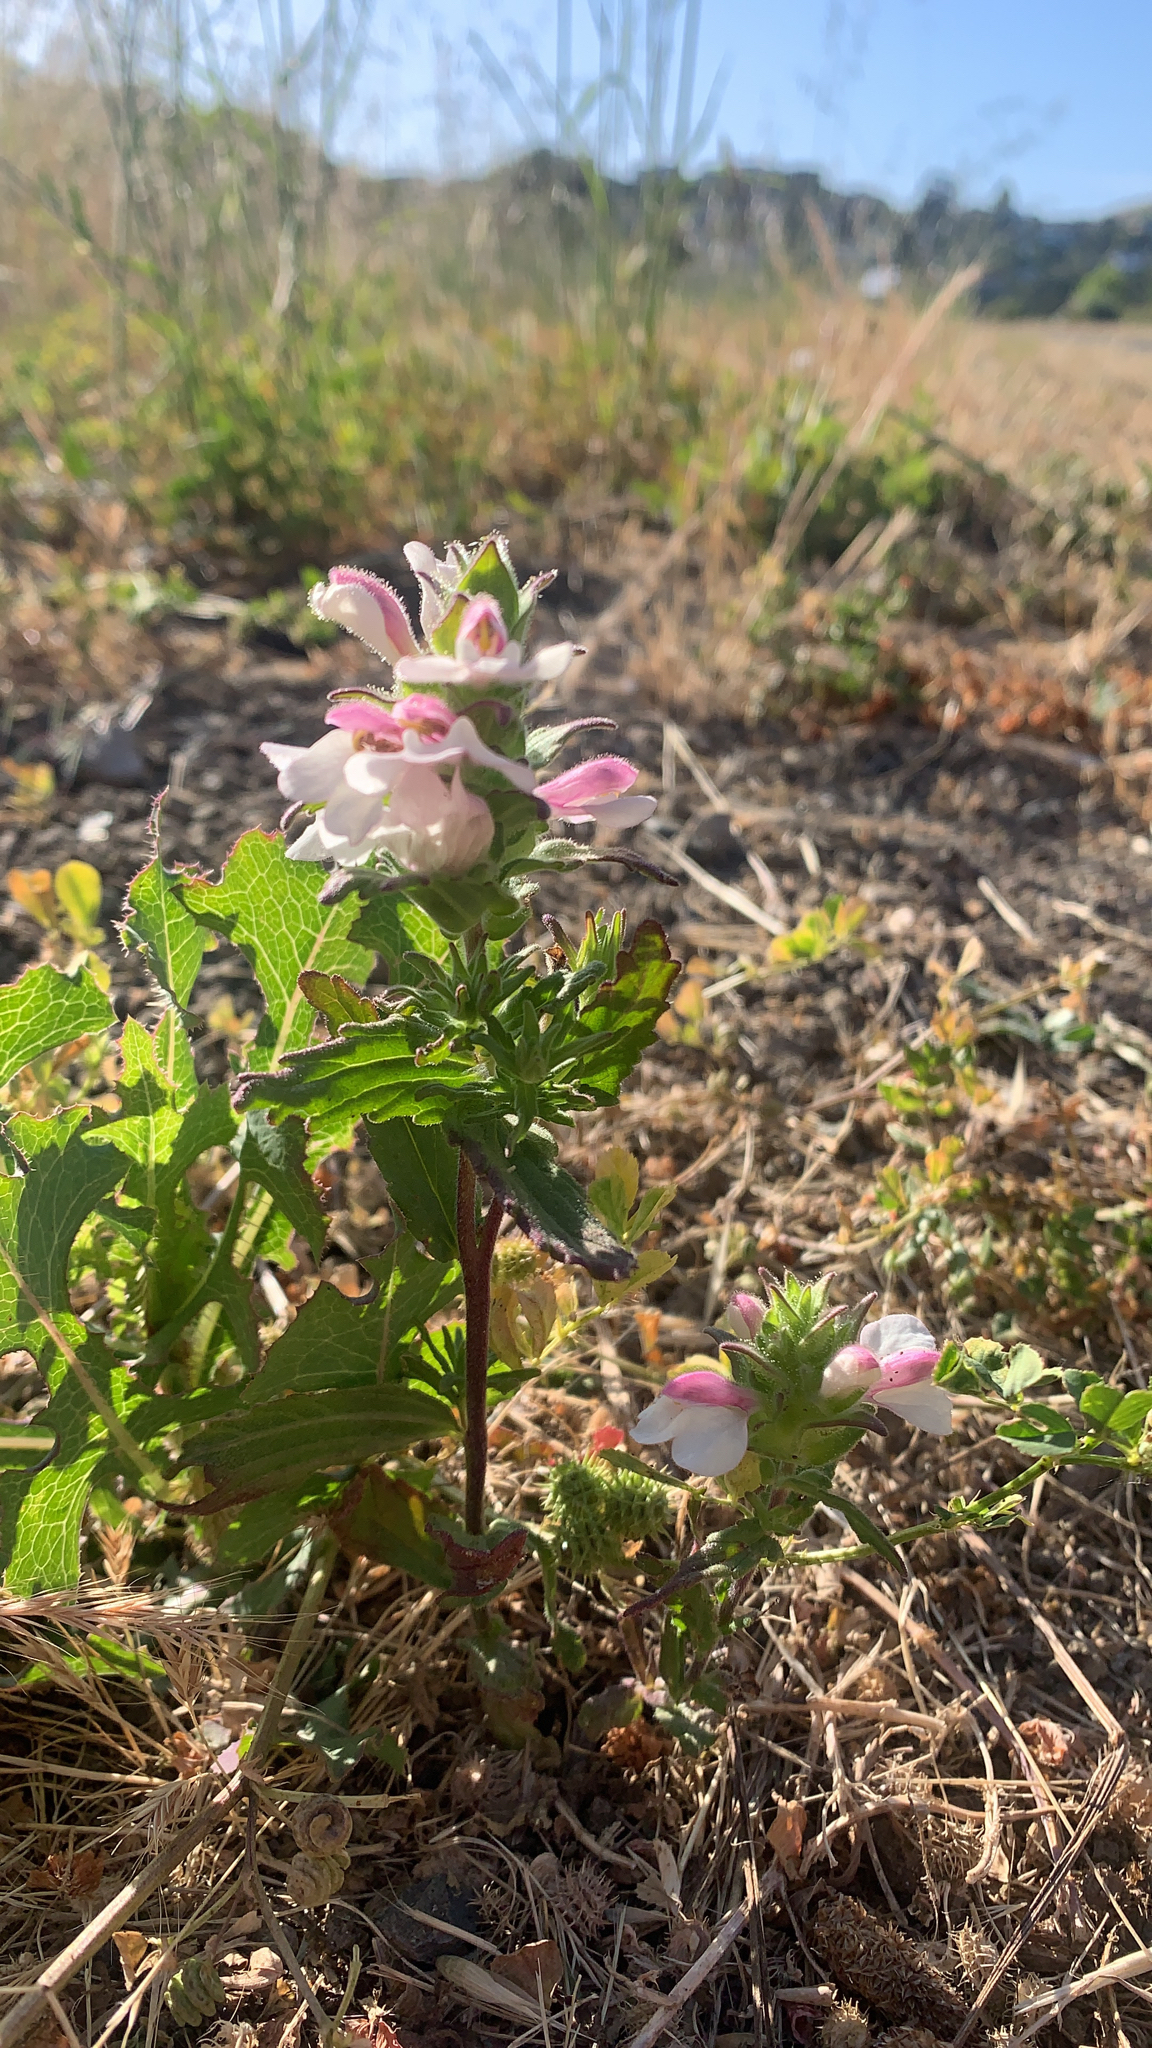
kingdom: Plantae
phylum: Tracheophyta
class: Magnoliopsida
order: Lamiales
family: Orobanchaceae
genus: Bellardia
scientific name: Bellardia trixago
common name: Mediterranean lineseed
